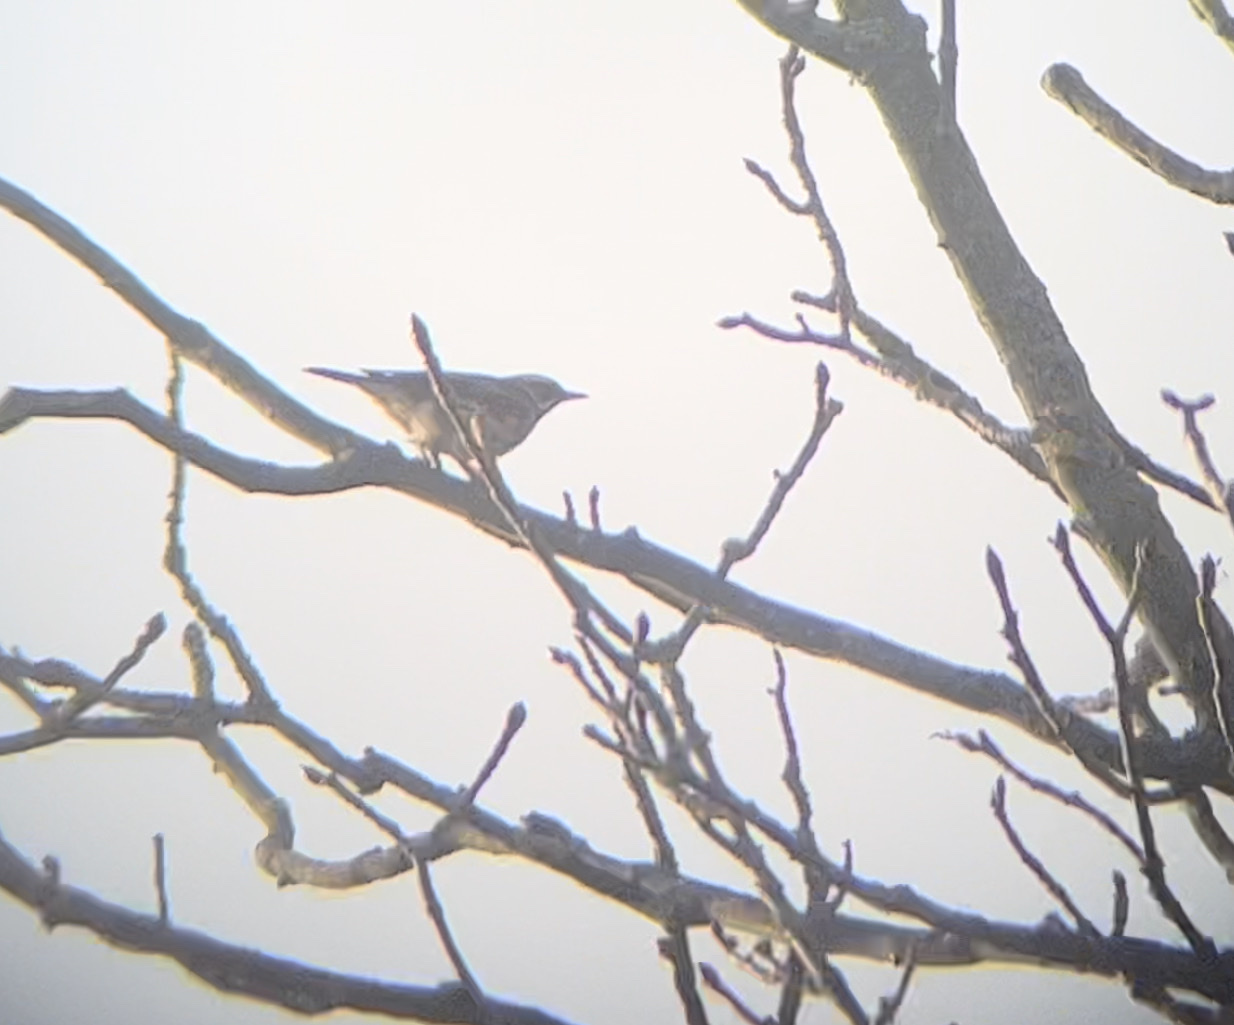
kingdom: Animalia
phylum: Chordata
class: Aves
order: Passeriformes
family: Turdidae
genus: Turdus
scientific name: Turdus iliacus
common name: Redwing
